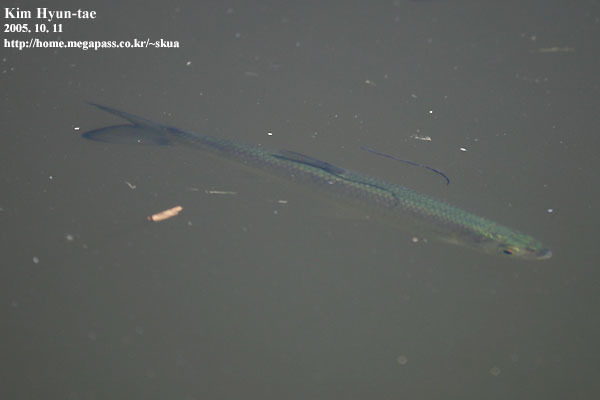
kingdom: Animalia
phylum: Chordata
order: Cypriniformes
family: Cyprinidae
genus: Hemiculter
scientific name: Hemiculter leucisculus
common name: Common sawbelly
